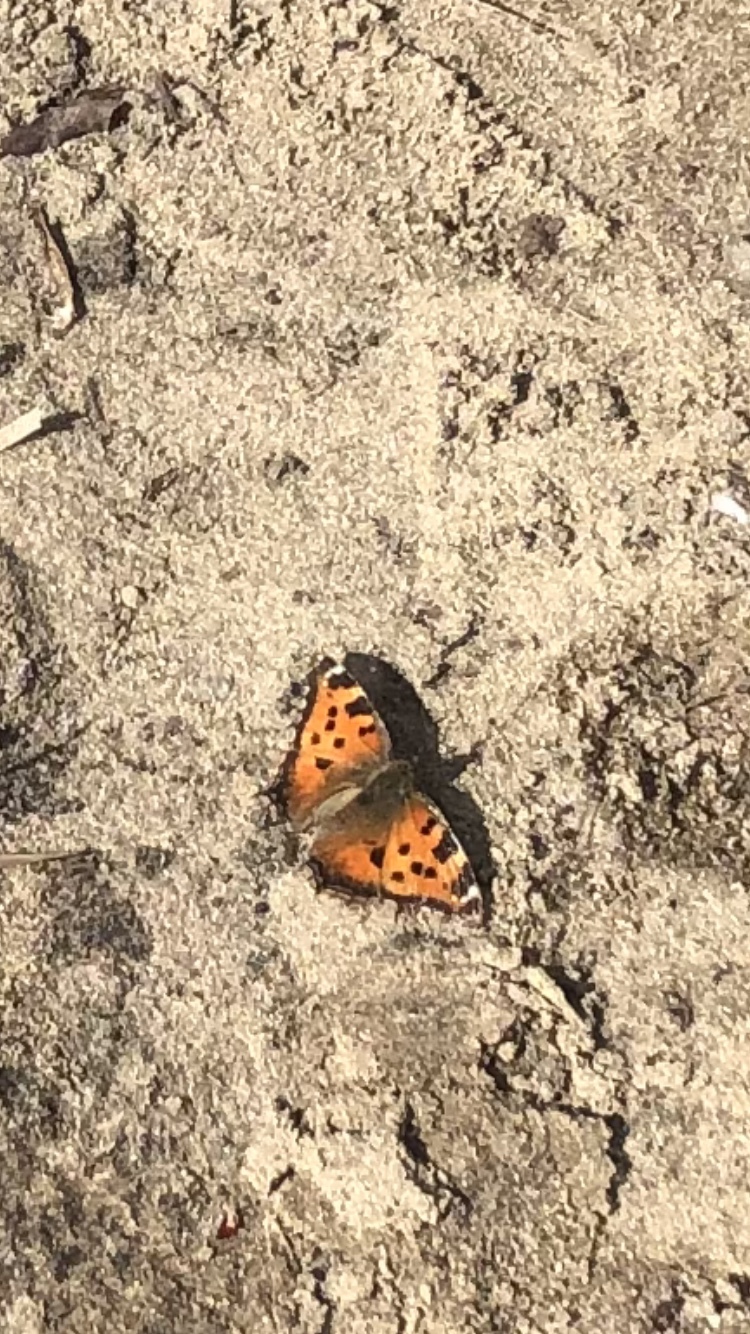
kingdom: Animalia
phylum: Arthropoda
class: Insecta
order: Lepidoptera
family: Nymphalidae
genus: Nymphalis
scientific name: Nymphalis xanthomelas
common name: Scarce tortoiseshell
